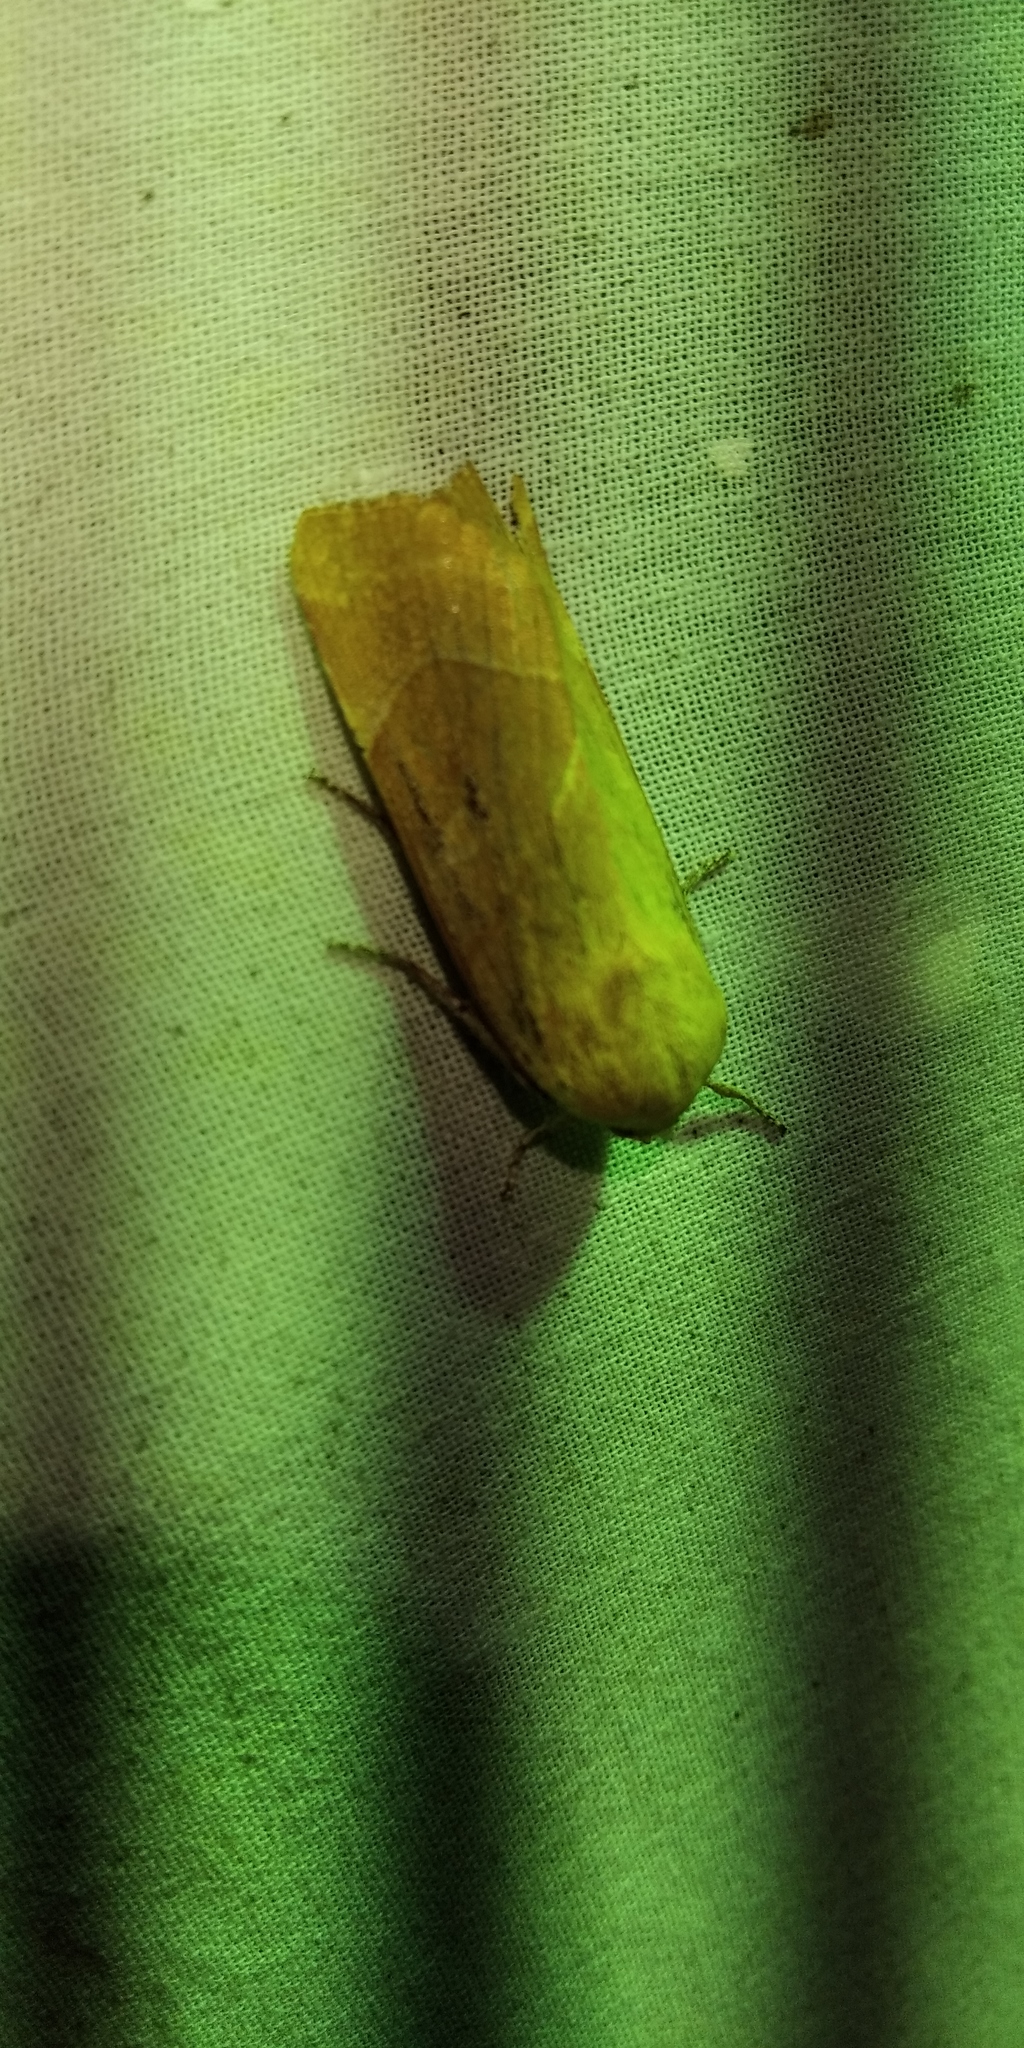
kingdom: Animalia
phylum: Arthropoda
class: Insecta
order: Lepidoptera
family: Noctuidae
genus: Noctua
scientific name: Noctua fimbriata
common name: Broad-bordered yellow underwing
